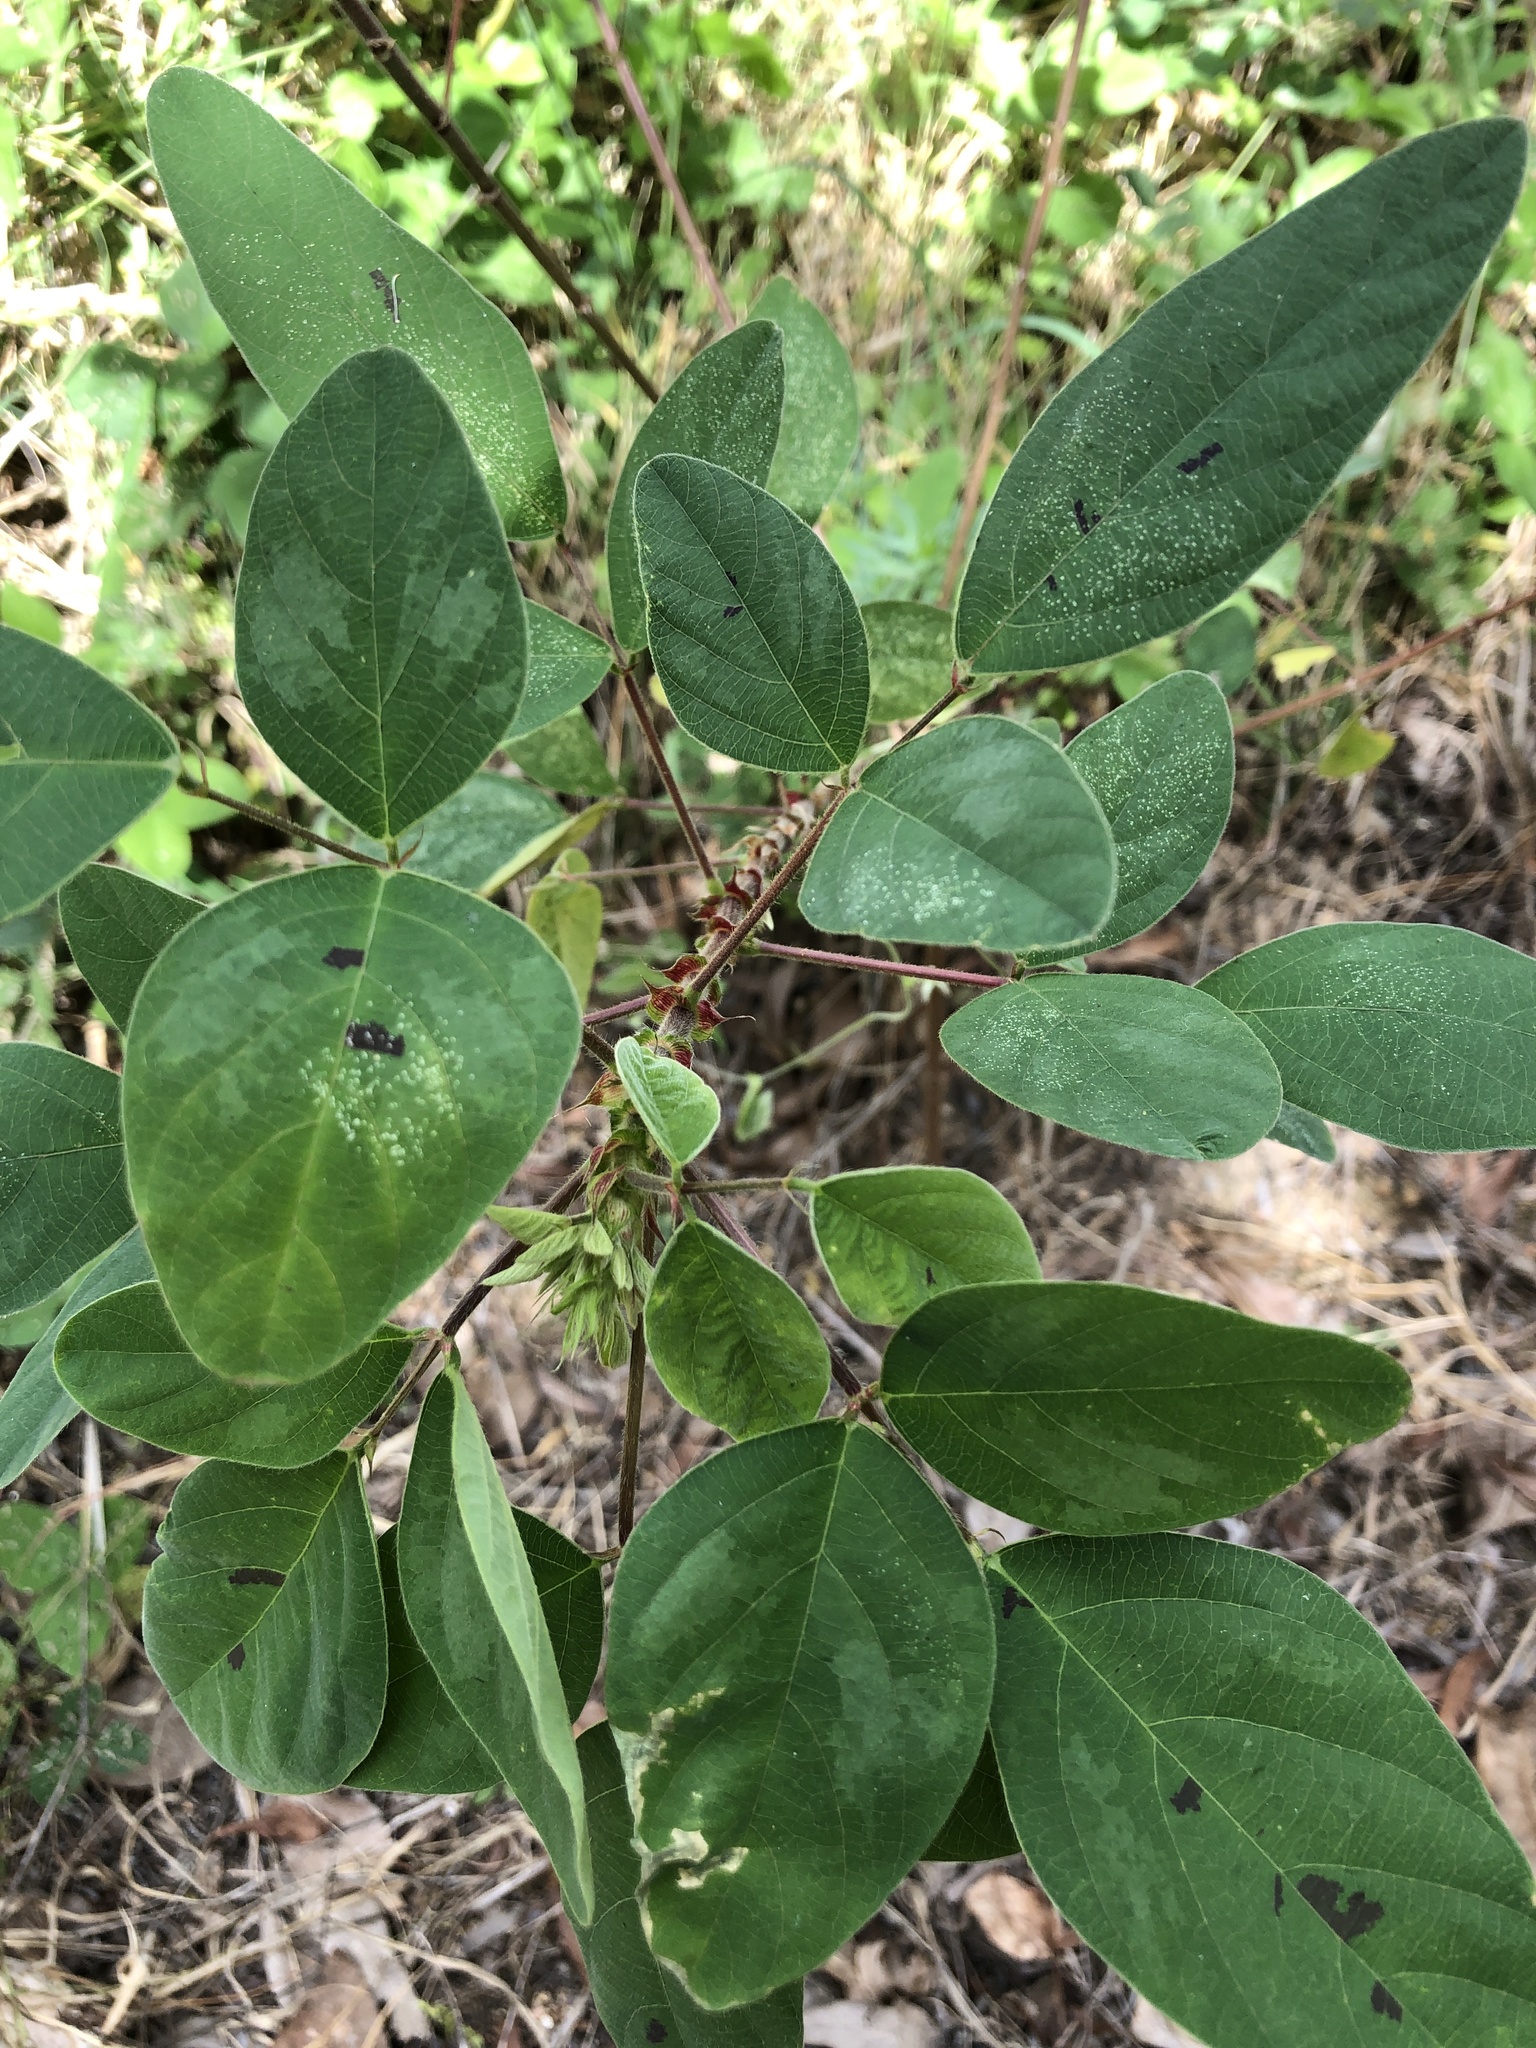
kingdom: Plantae
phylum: Tracheophyta
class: Magnoliopsida
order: Fabales
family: Fabaceae
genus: Desmodium
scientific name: Desmodium tortuosum
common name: Dixie ticktrefoil
